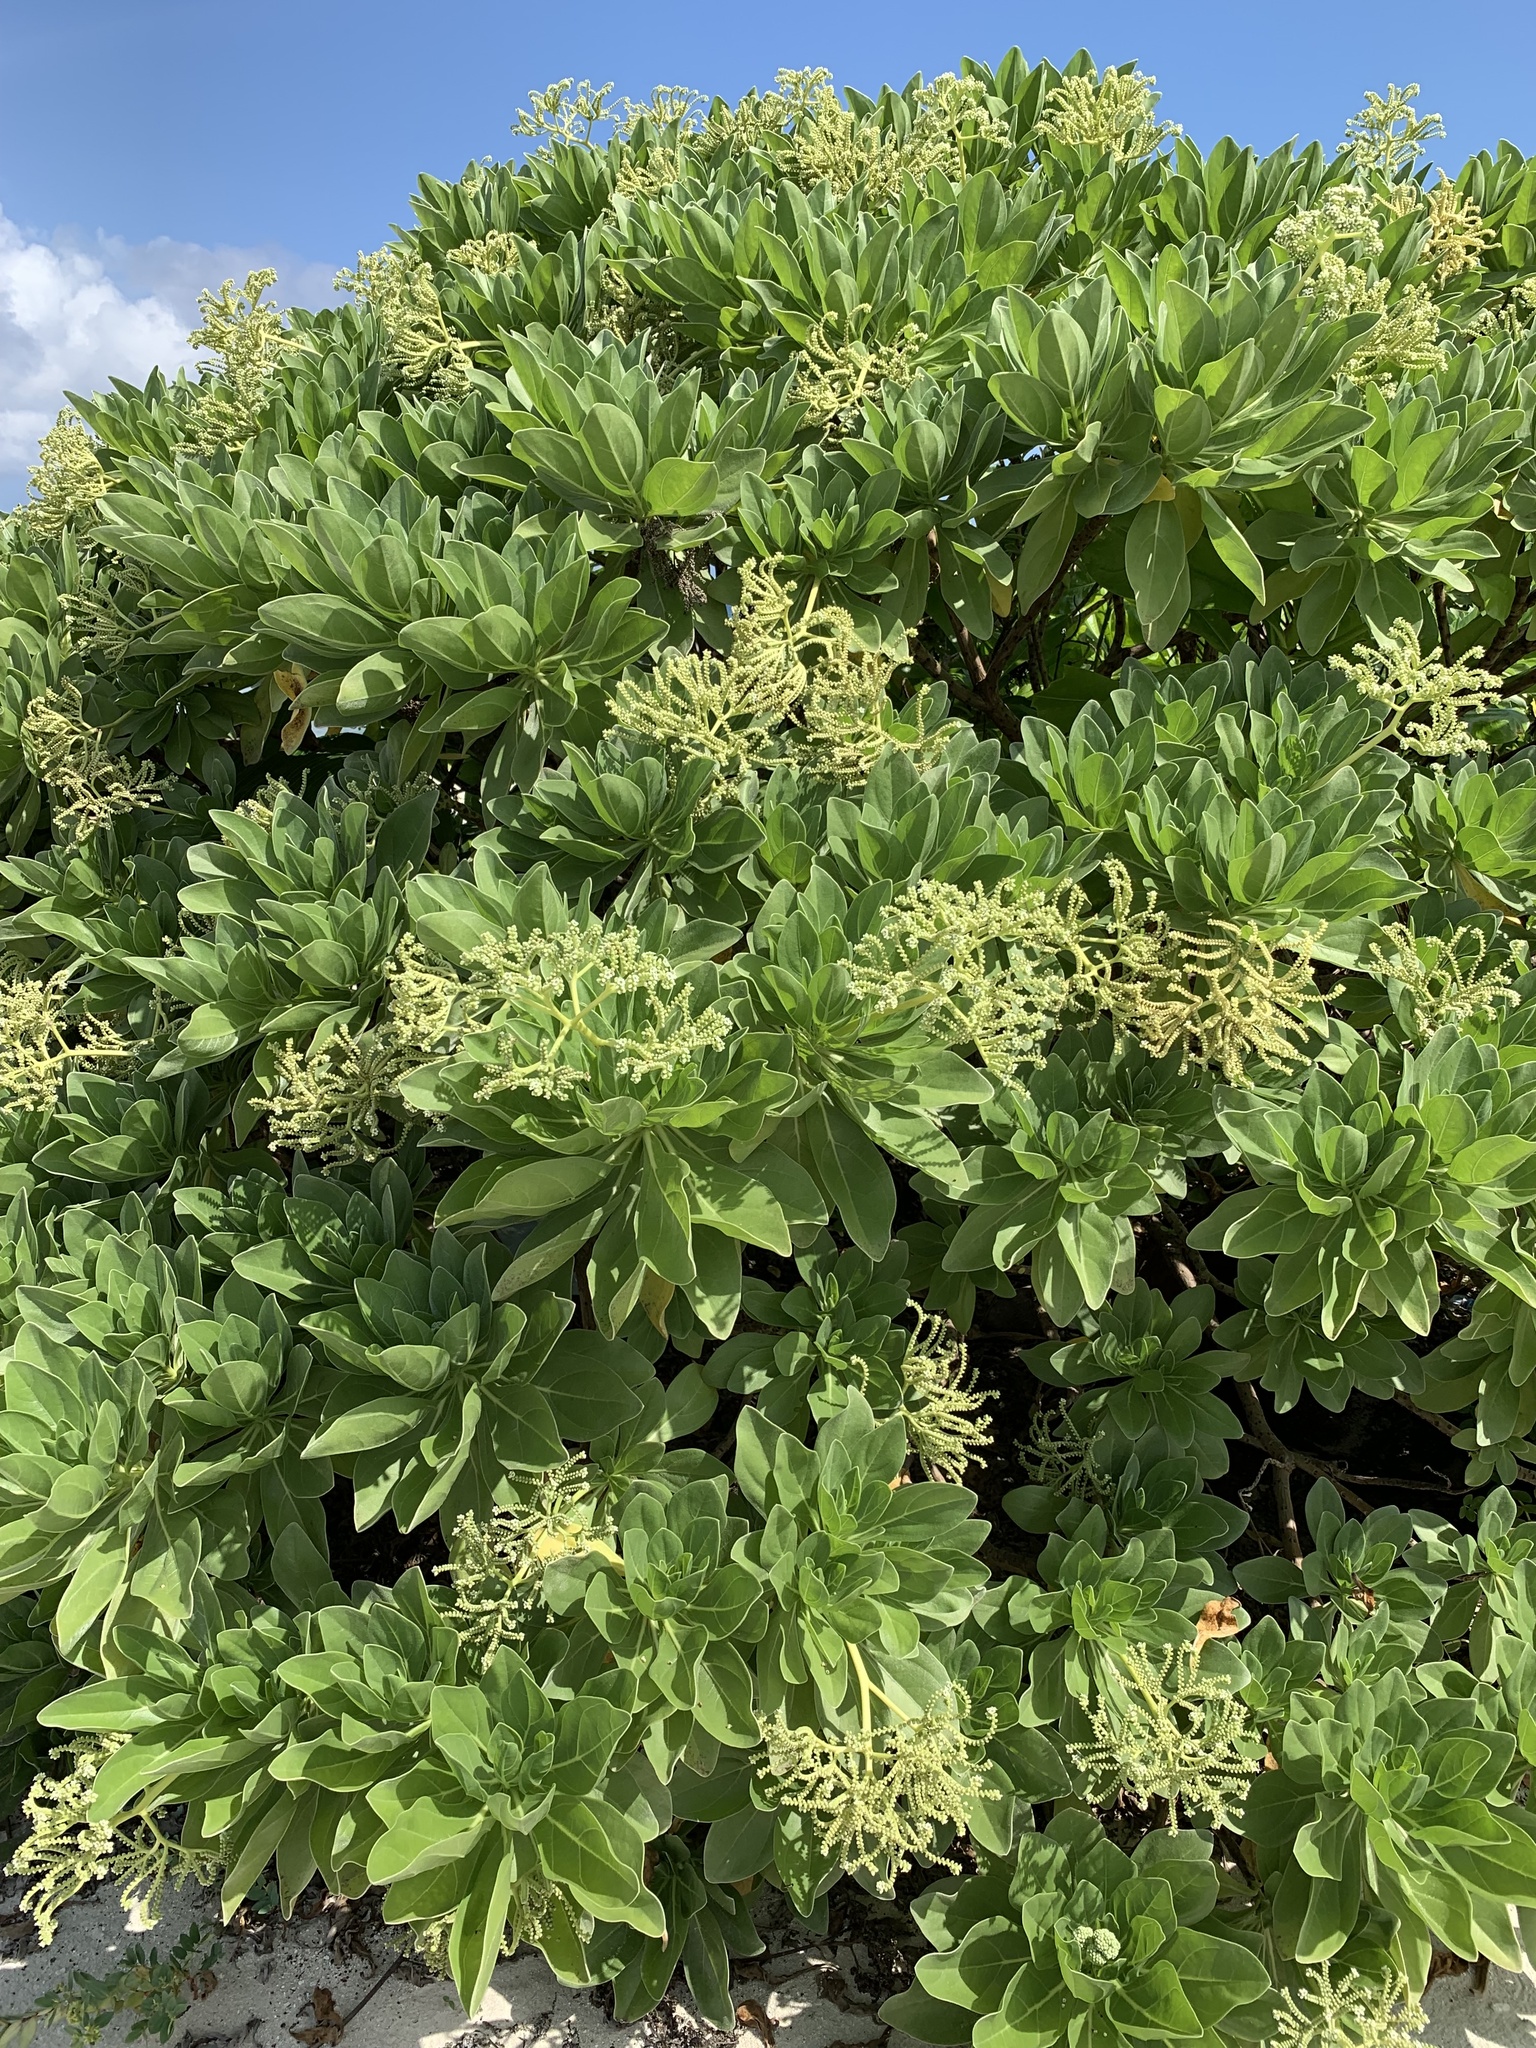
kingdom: Plantae
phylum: Tracheophyta
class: Magnoliopsida
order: Boraginales
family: Heliotropiaceae
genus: Heliotropium
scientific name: Heliotropium velutinum
